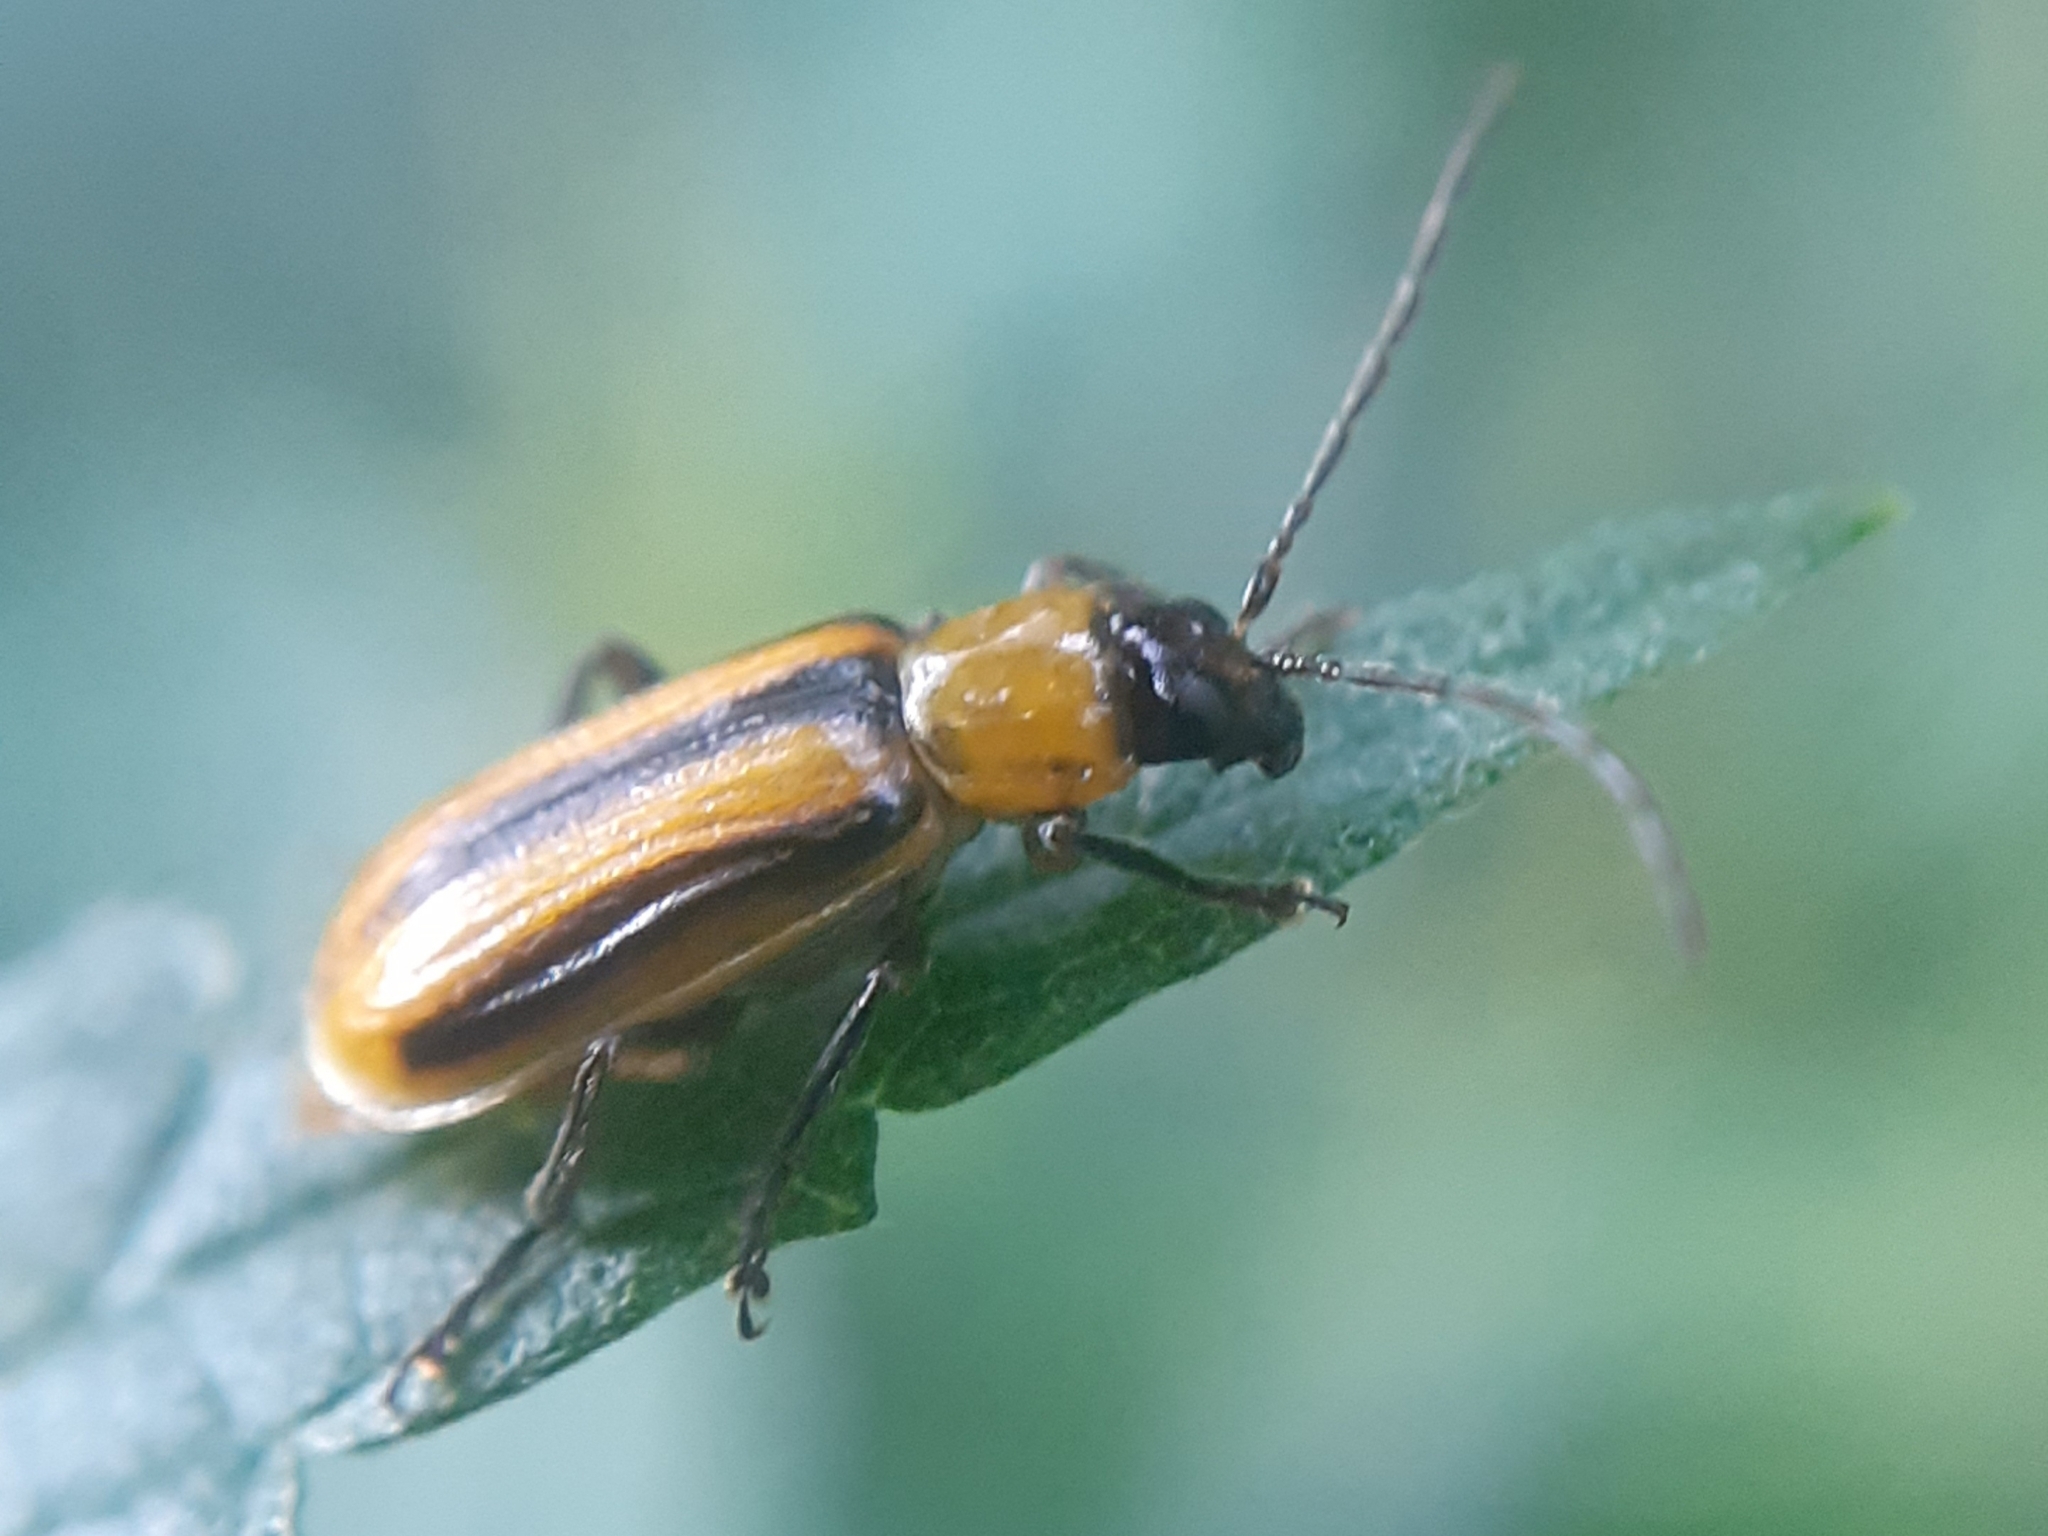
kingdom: Animalia
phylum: Arthropoda
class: Insecta
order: Coleoptera
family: Chrysomelidae
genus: Diabrotica
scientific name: Diabrotica virgifera
